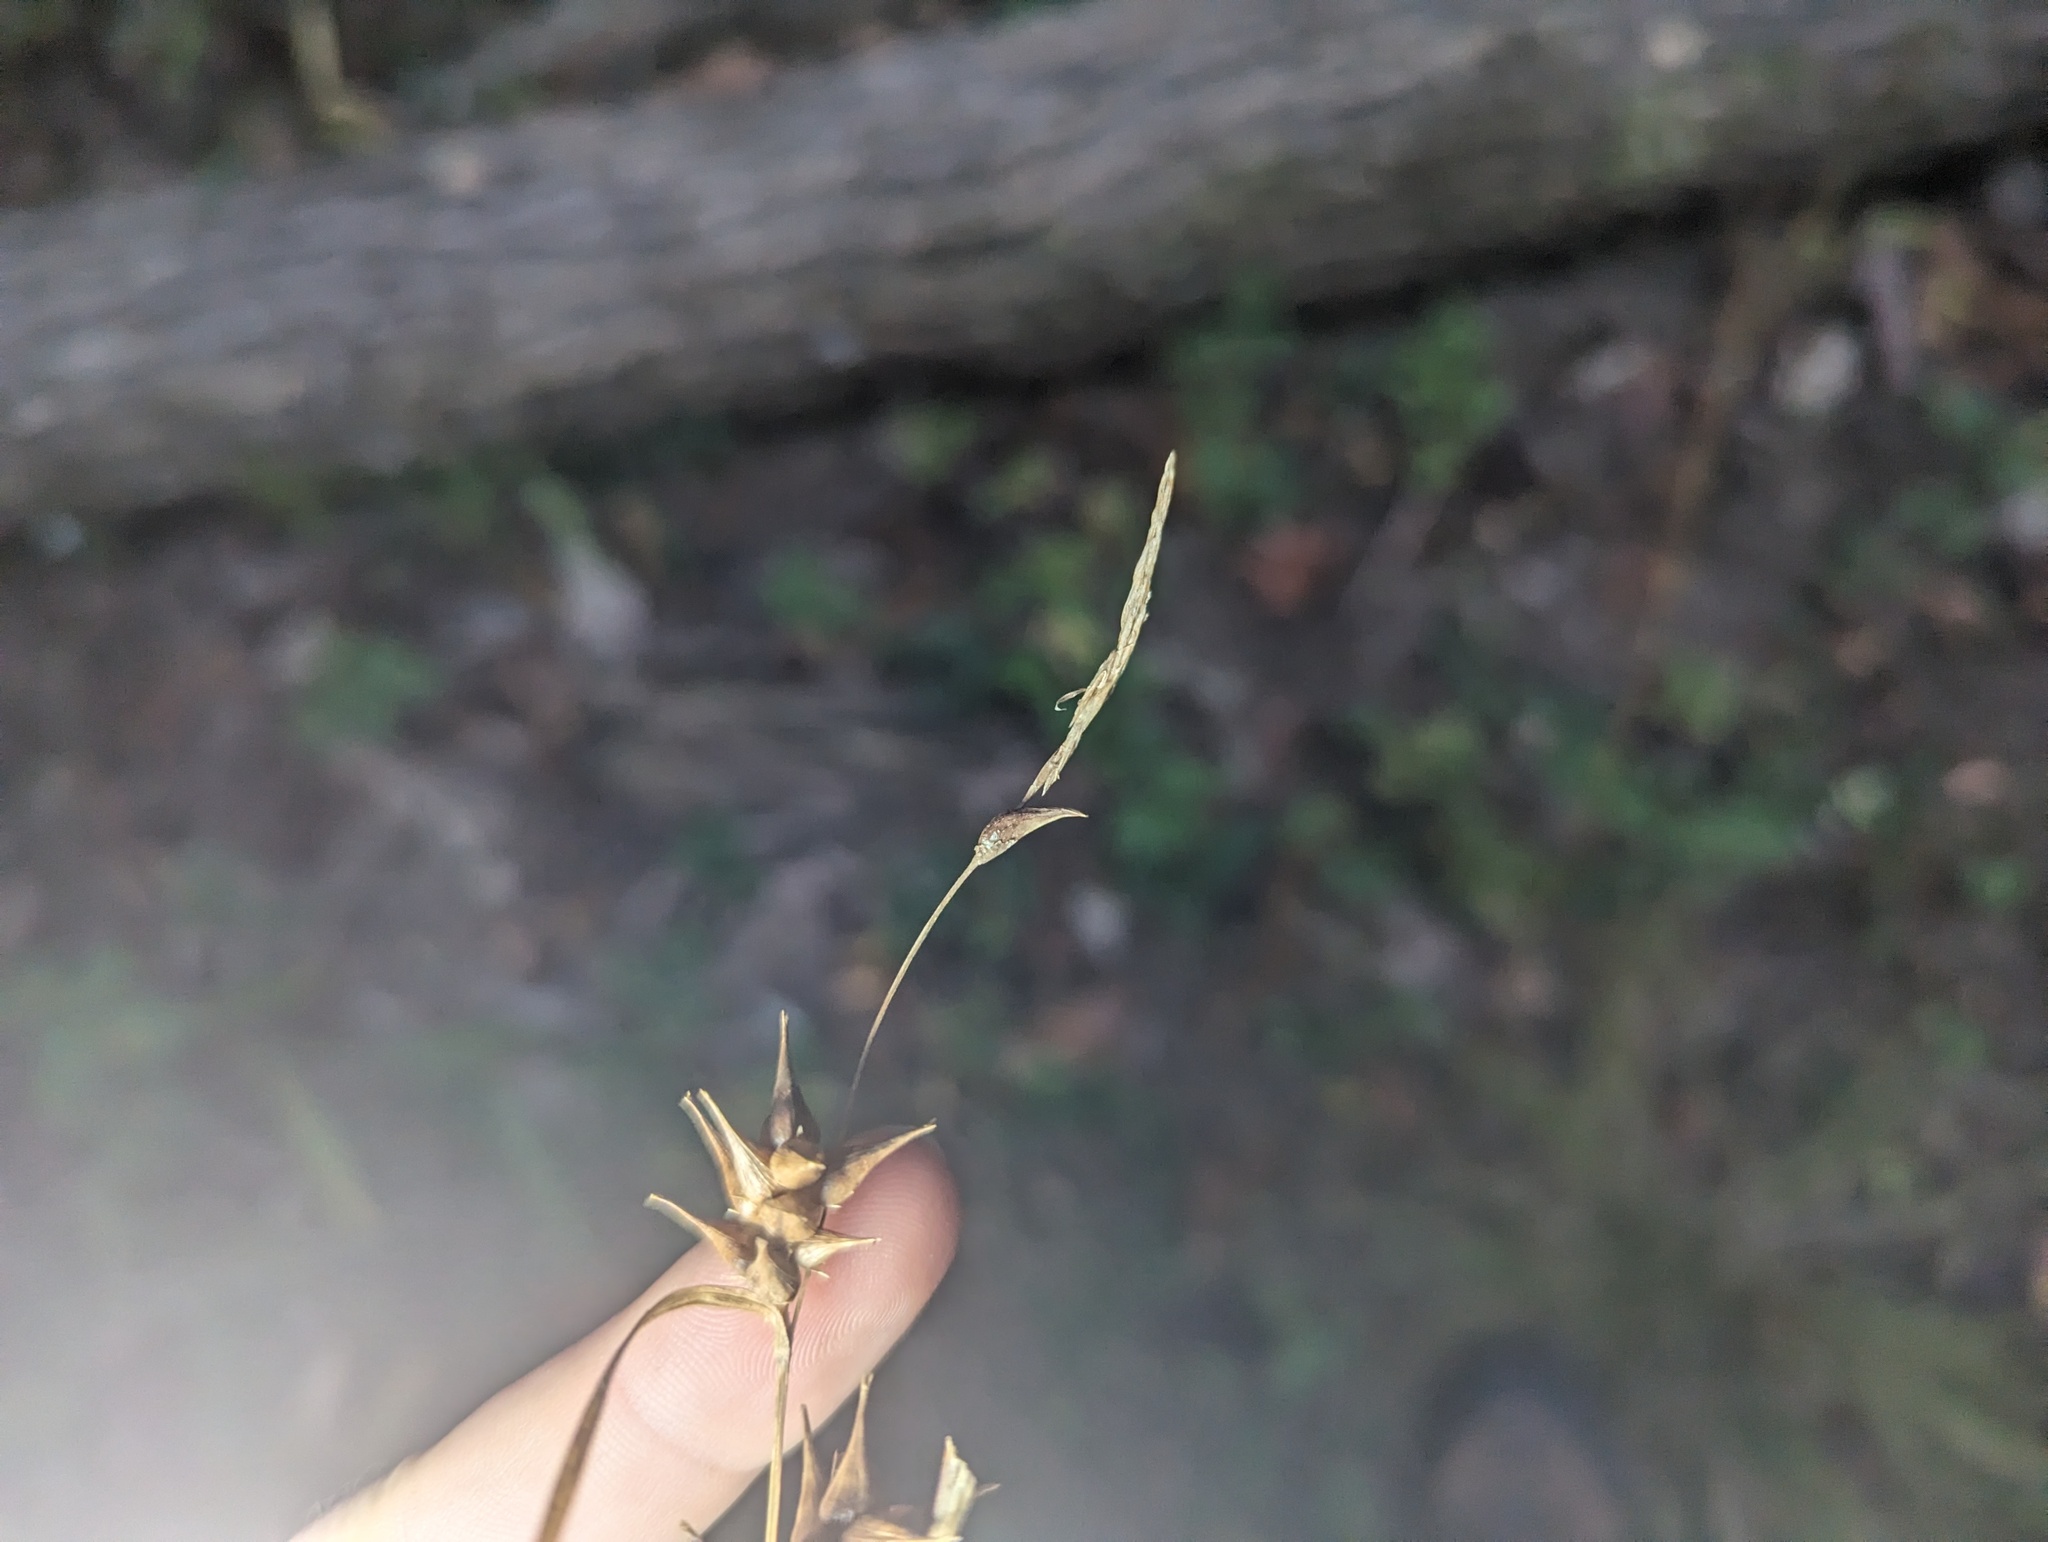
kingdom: Plantae
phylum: Tracheophyta
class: Liliopsida
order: Poales
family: Cyperaceae
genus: Carex
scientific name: Carex intumescens
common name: Greater bladder sedge
